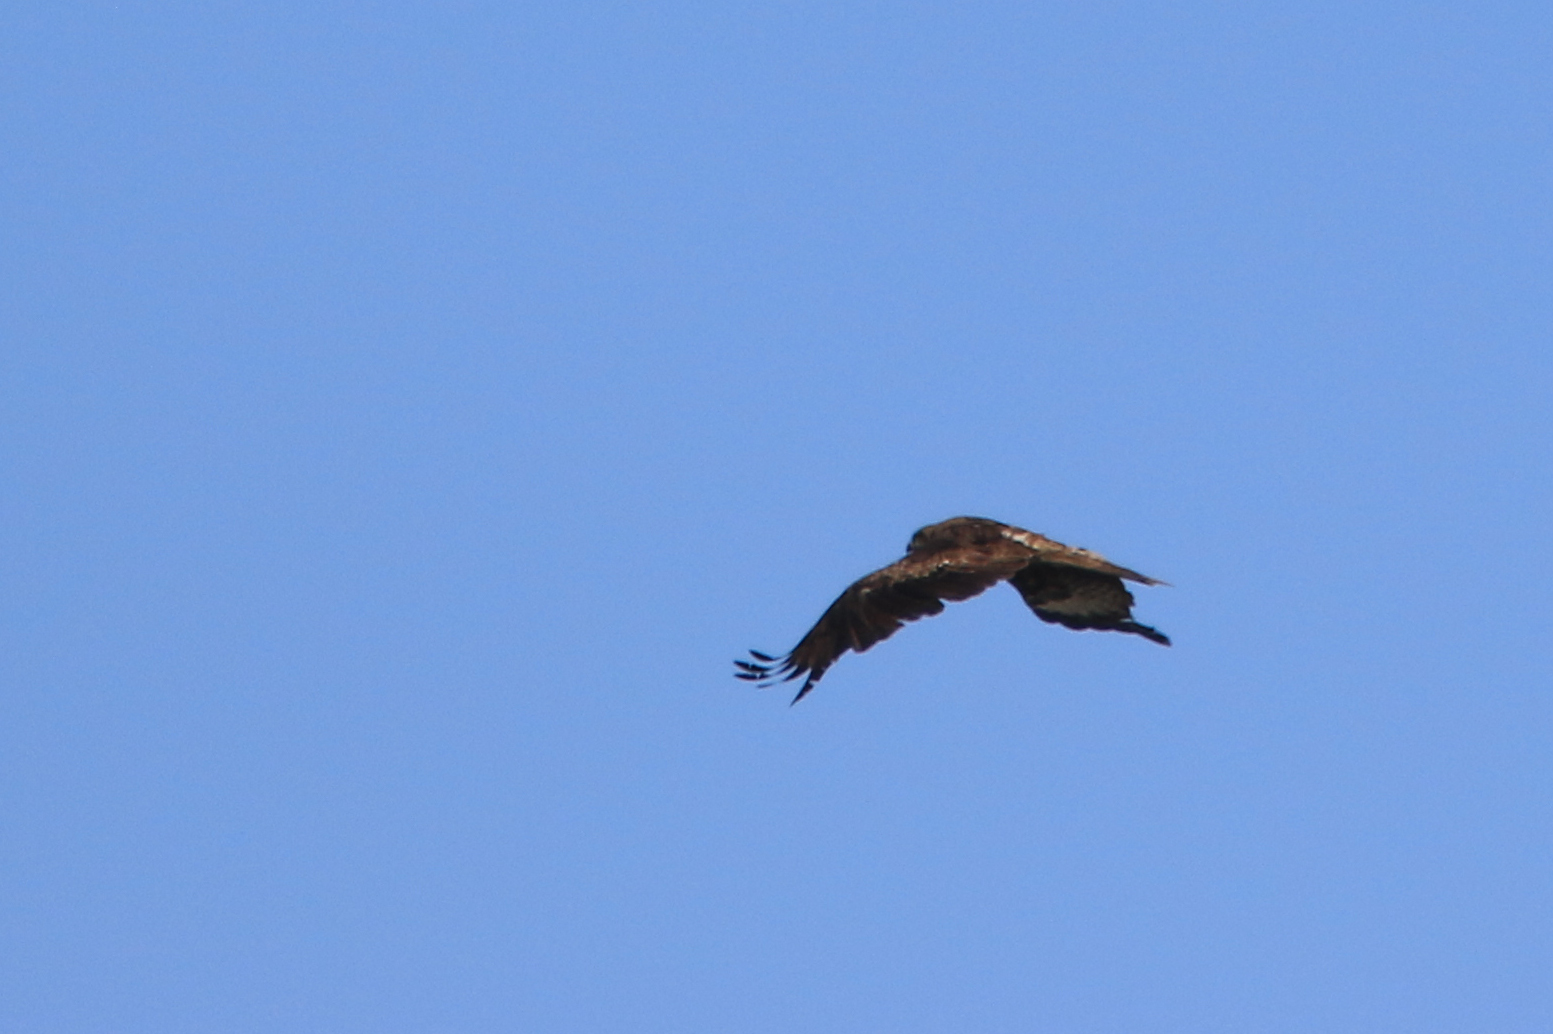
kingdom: Animalia
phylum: Chordata
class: Aves
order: Accipitriformes
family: Accipitridae
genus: Milvus
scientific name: Milvus migrans
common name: Black kite
